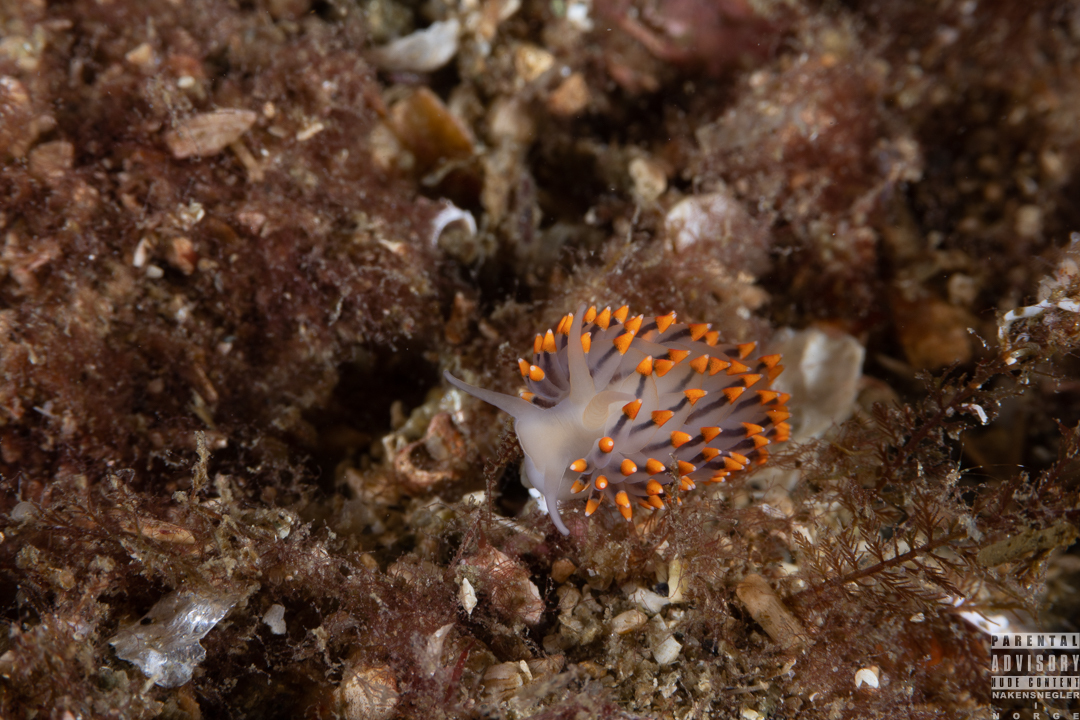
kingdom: Animalia
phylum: Mollusca
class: Gastropoda
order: Nudibranchia
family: Eubranchidae
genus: Eubranchus
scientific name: Eubranchus tricolor
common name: Painted balloon aeolis
